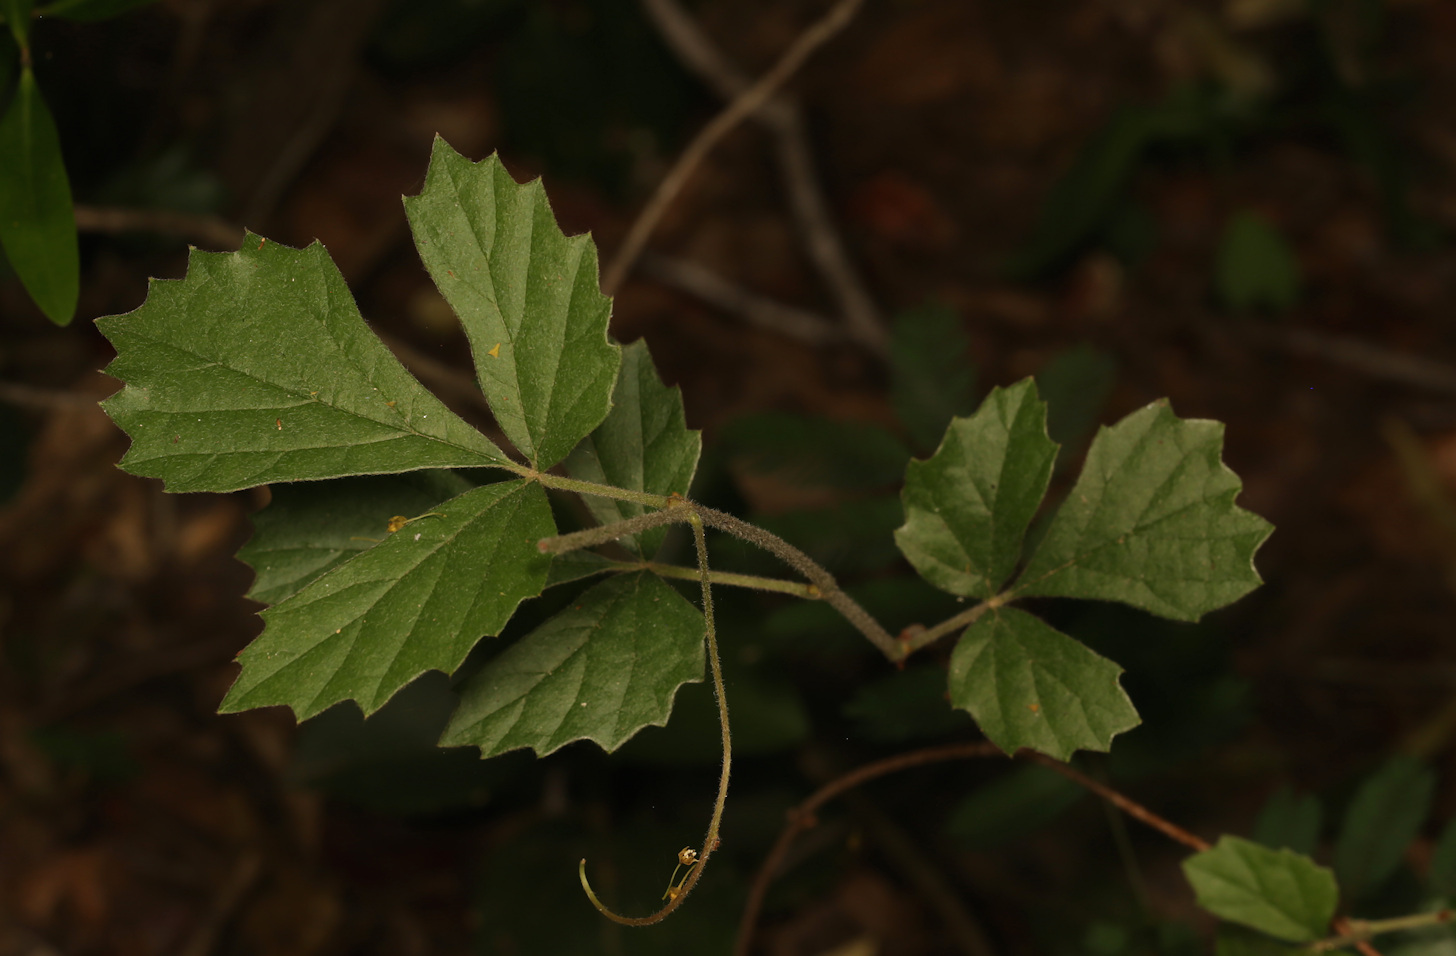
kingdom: Plantae
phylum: Tracheophyta
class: Magnoliopsida
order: Vitales
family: Vitaceae
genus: Rhoicissus
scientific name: Rhoicissus tridentata
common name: Common forest grape
